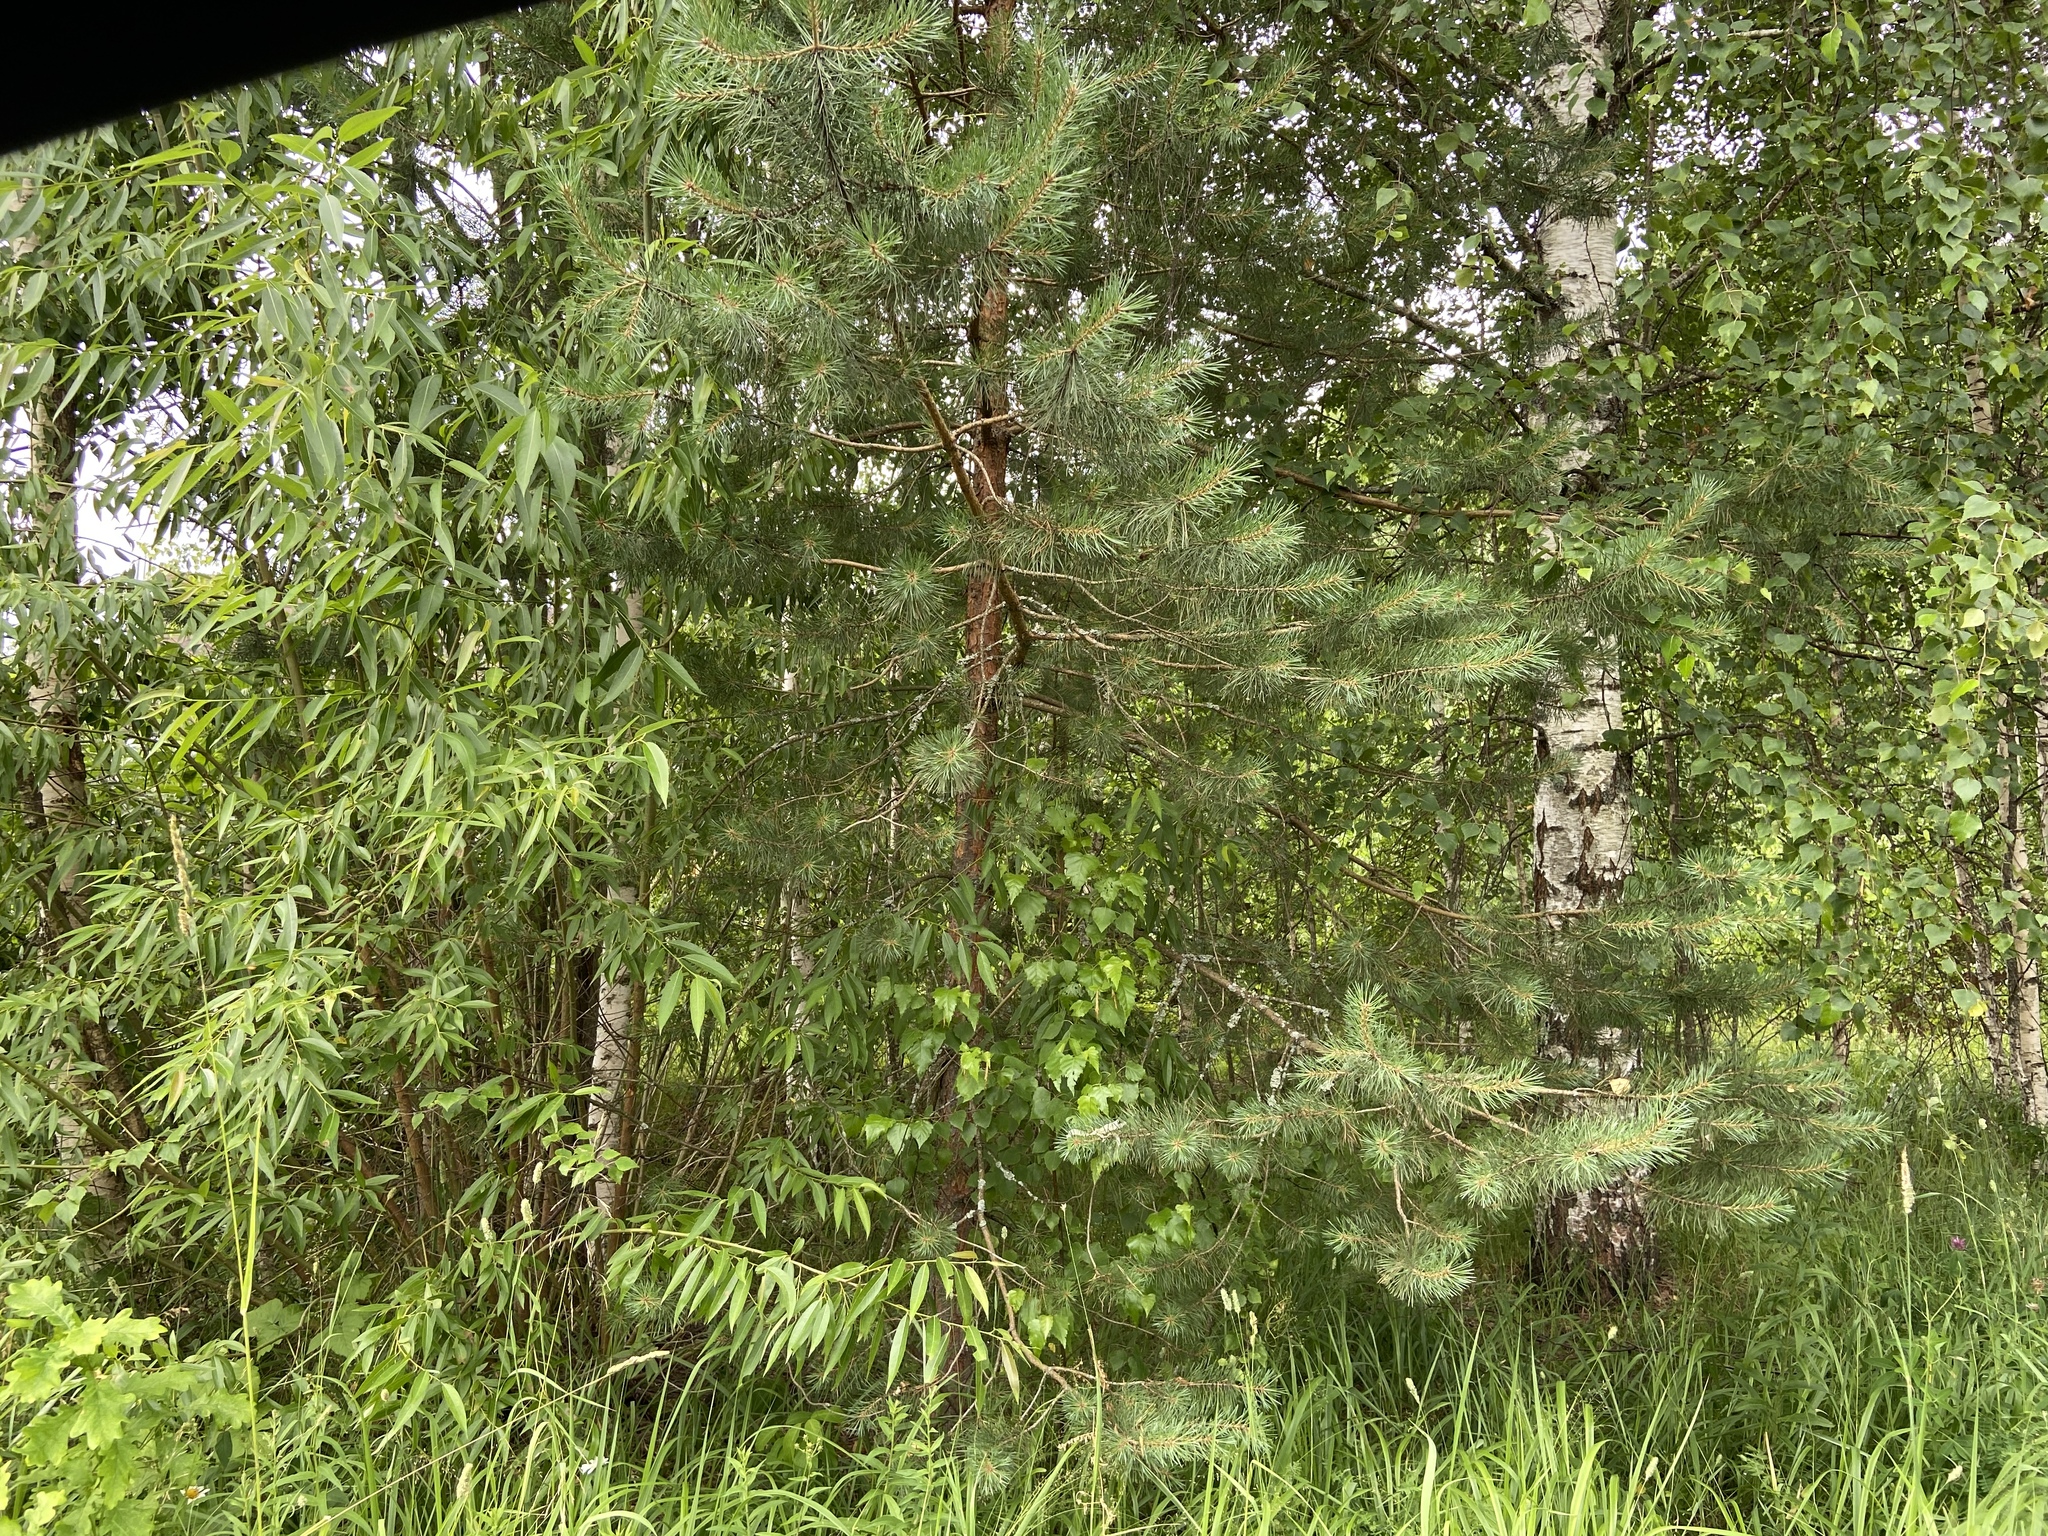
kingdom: Plantae
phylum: Tracheophyta
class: Pinopsida
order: Pinales
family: Pinaceae
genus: Pinus
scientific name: Pinus sylvestris
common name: Scots pine
